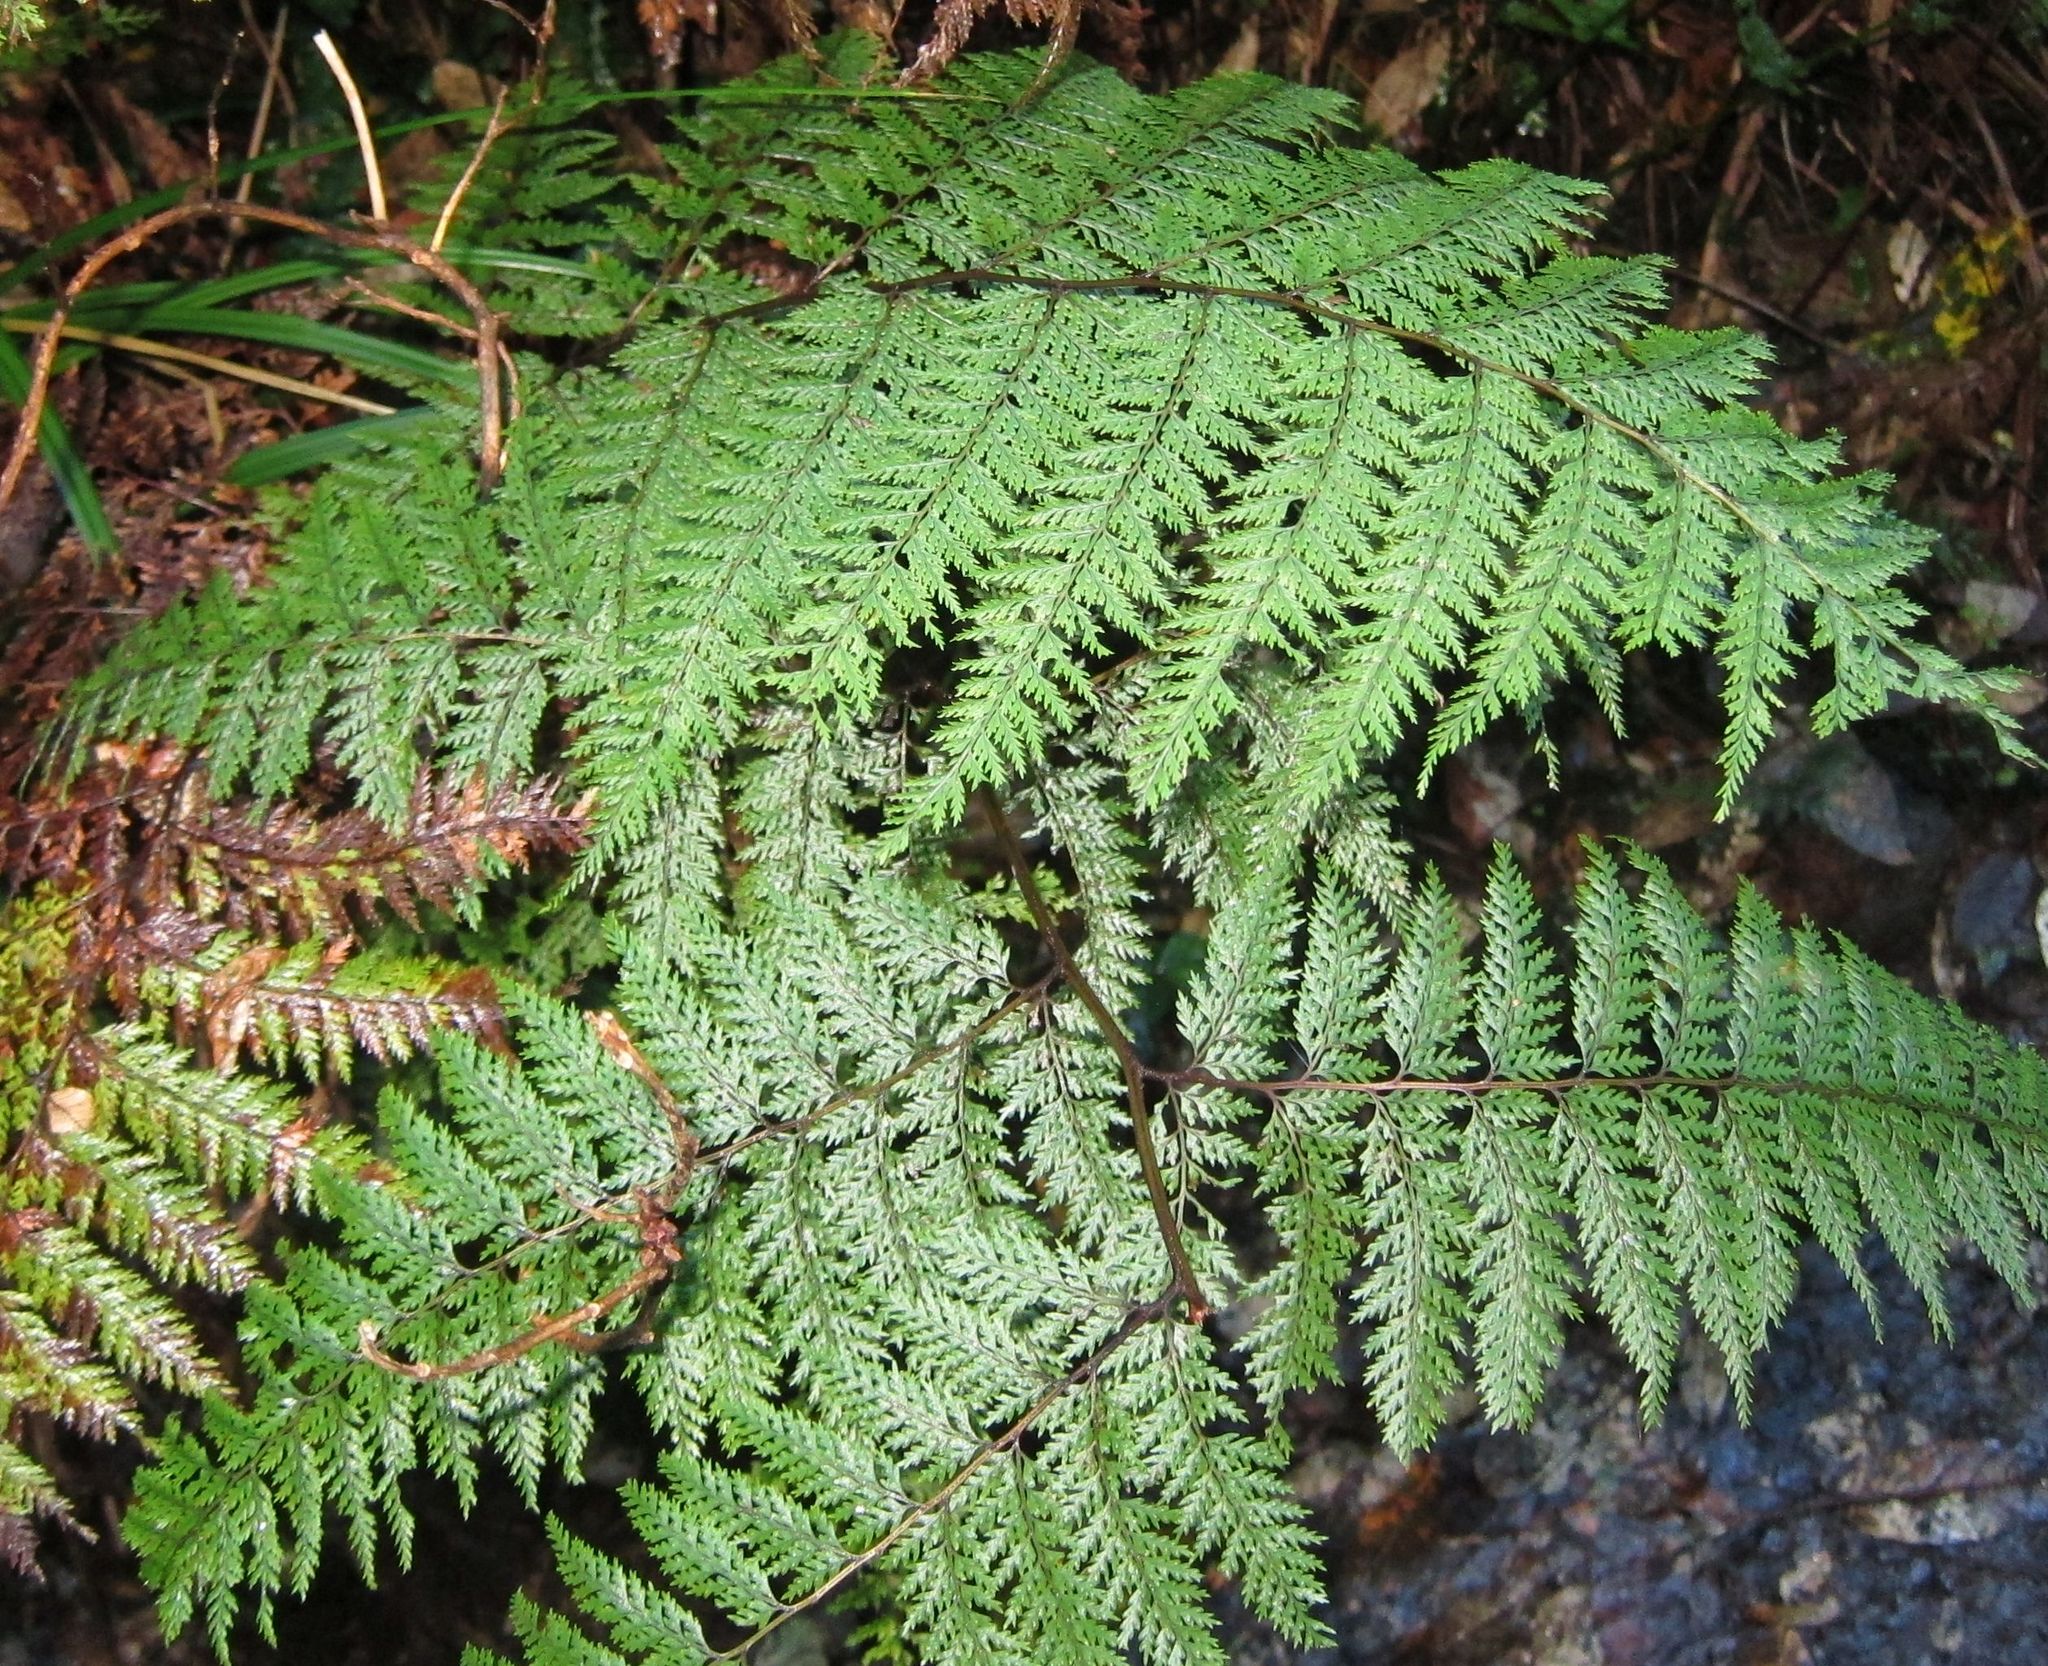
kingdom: Plantae
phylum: Tracheophyta
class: Polypodiopsida
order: Polypodiales
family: Dennstaedtiaceae
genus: Dennstaedtia
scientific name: Dennstaedtia novae-zelandiae
